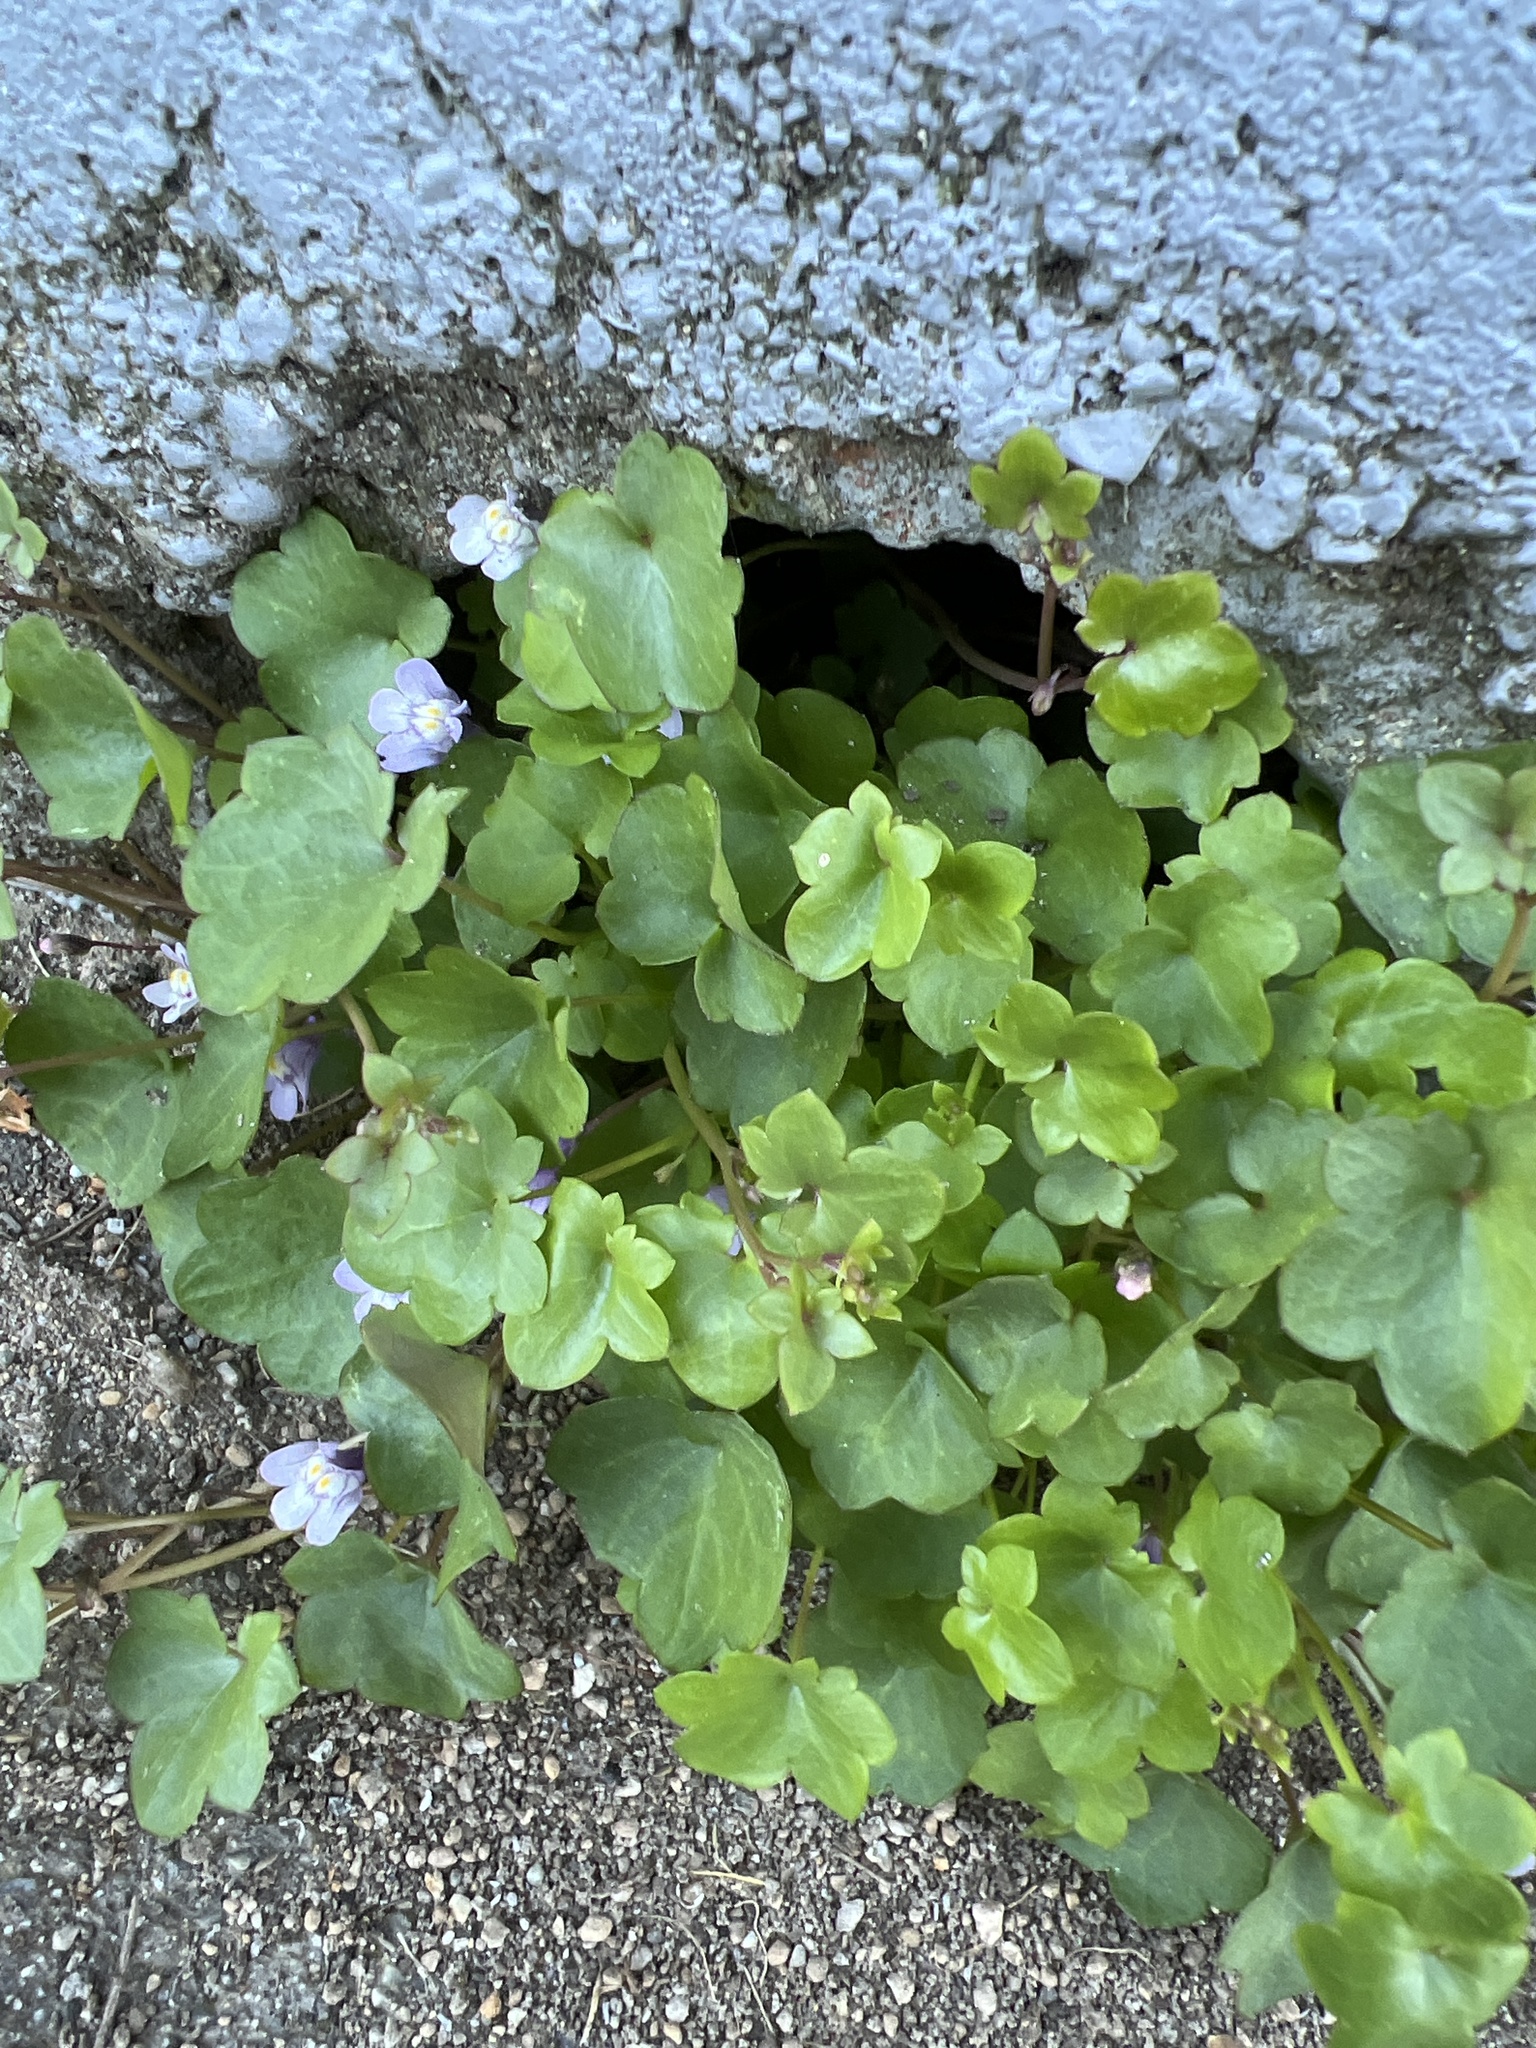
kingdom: Plantae
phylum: Tracheophyta
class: Magnoliopsida
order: Lamiales
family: Plantaginaceae
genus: Cymbalaria
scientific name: Cymbalaria muralis
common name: Ivy-leaved toadflax
